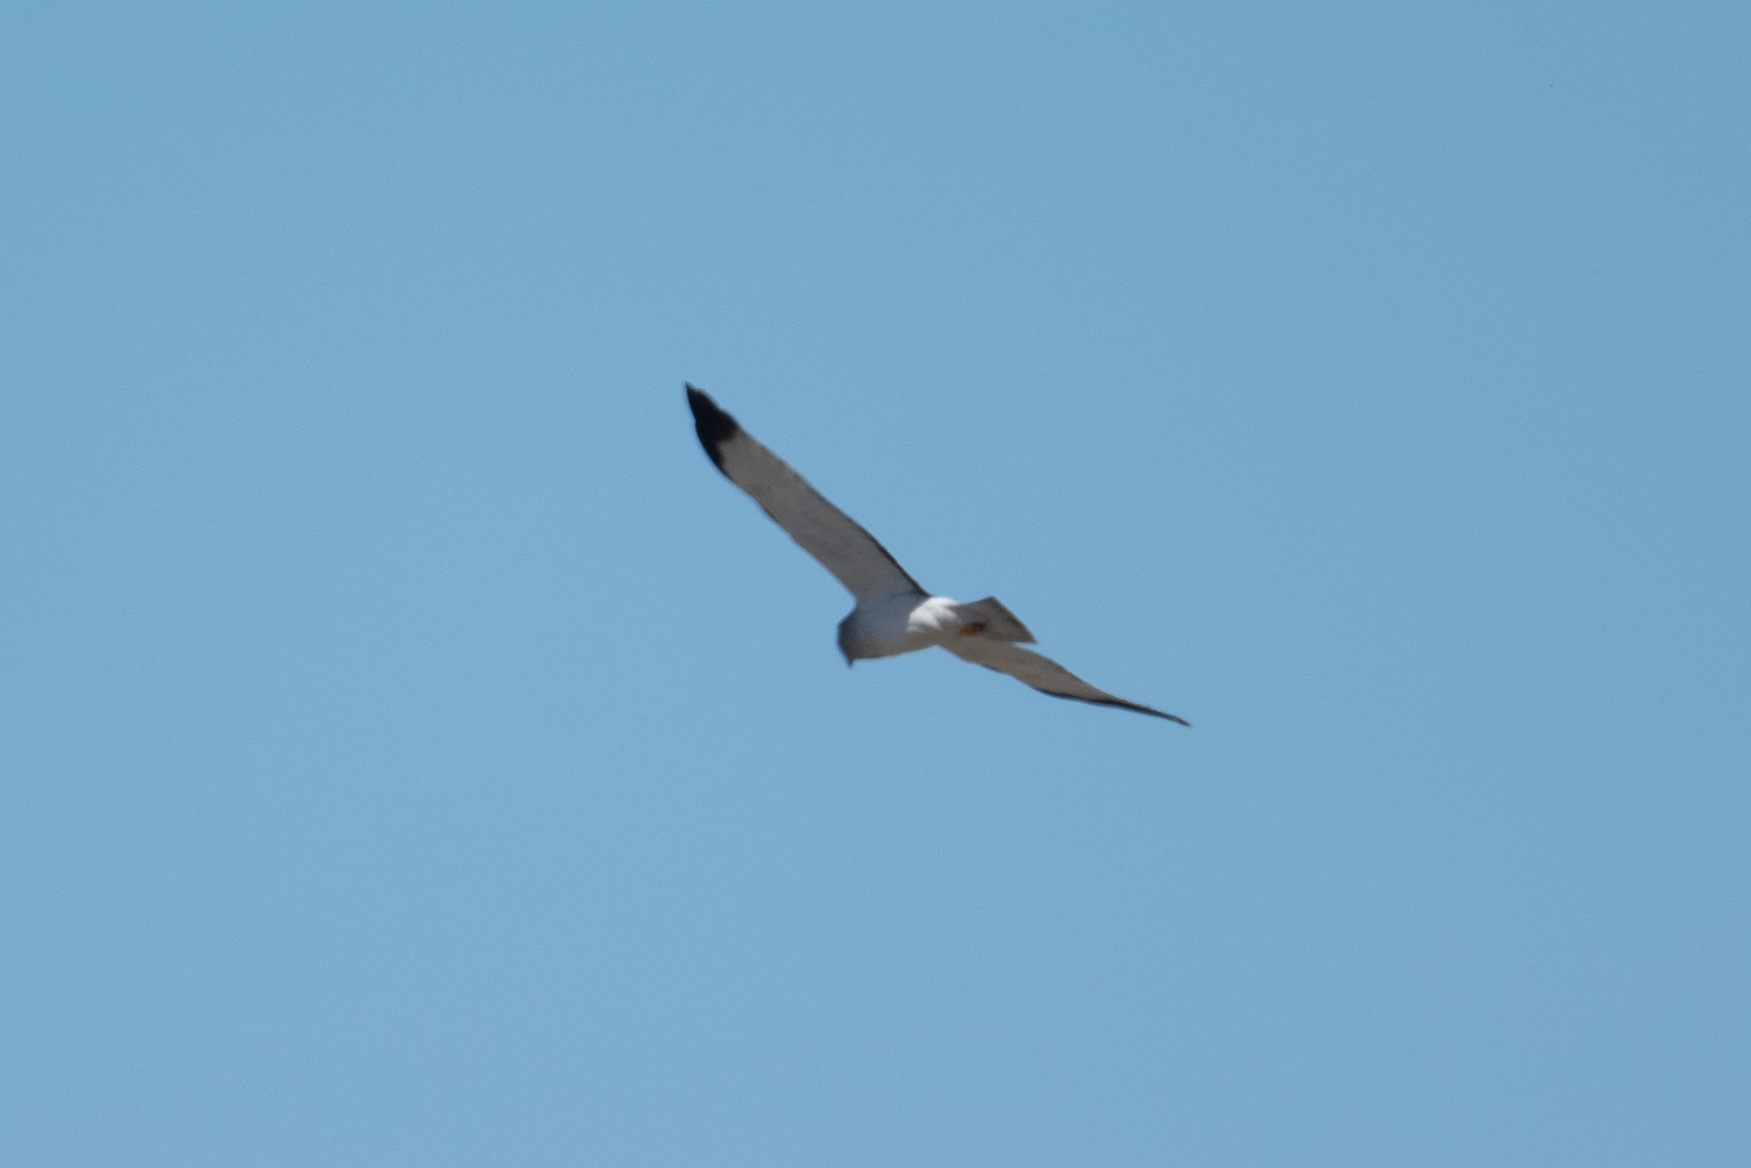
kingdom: Animalia
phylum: Chordata
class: Aves
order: Accipitriformes
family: Accipitridae
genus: Circus
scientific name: Circus cyaneus
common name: Hen harrier
